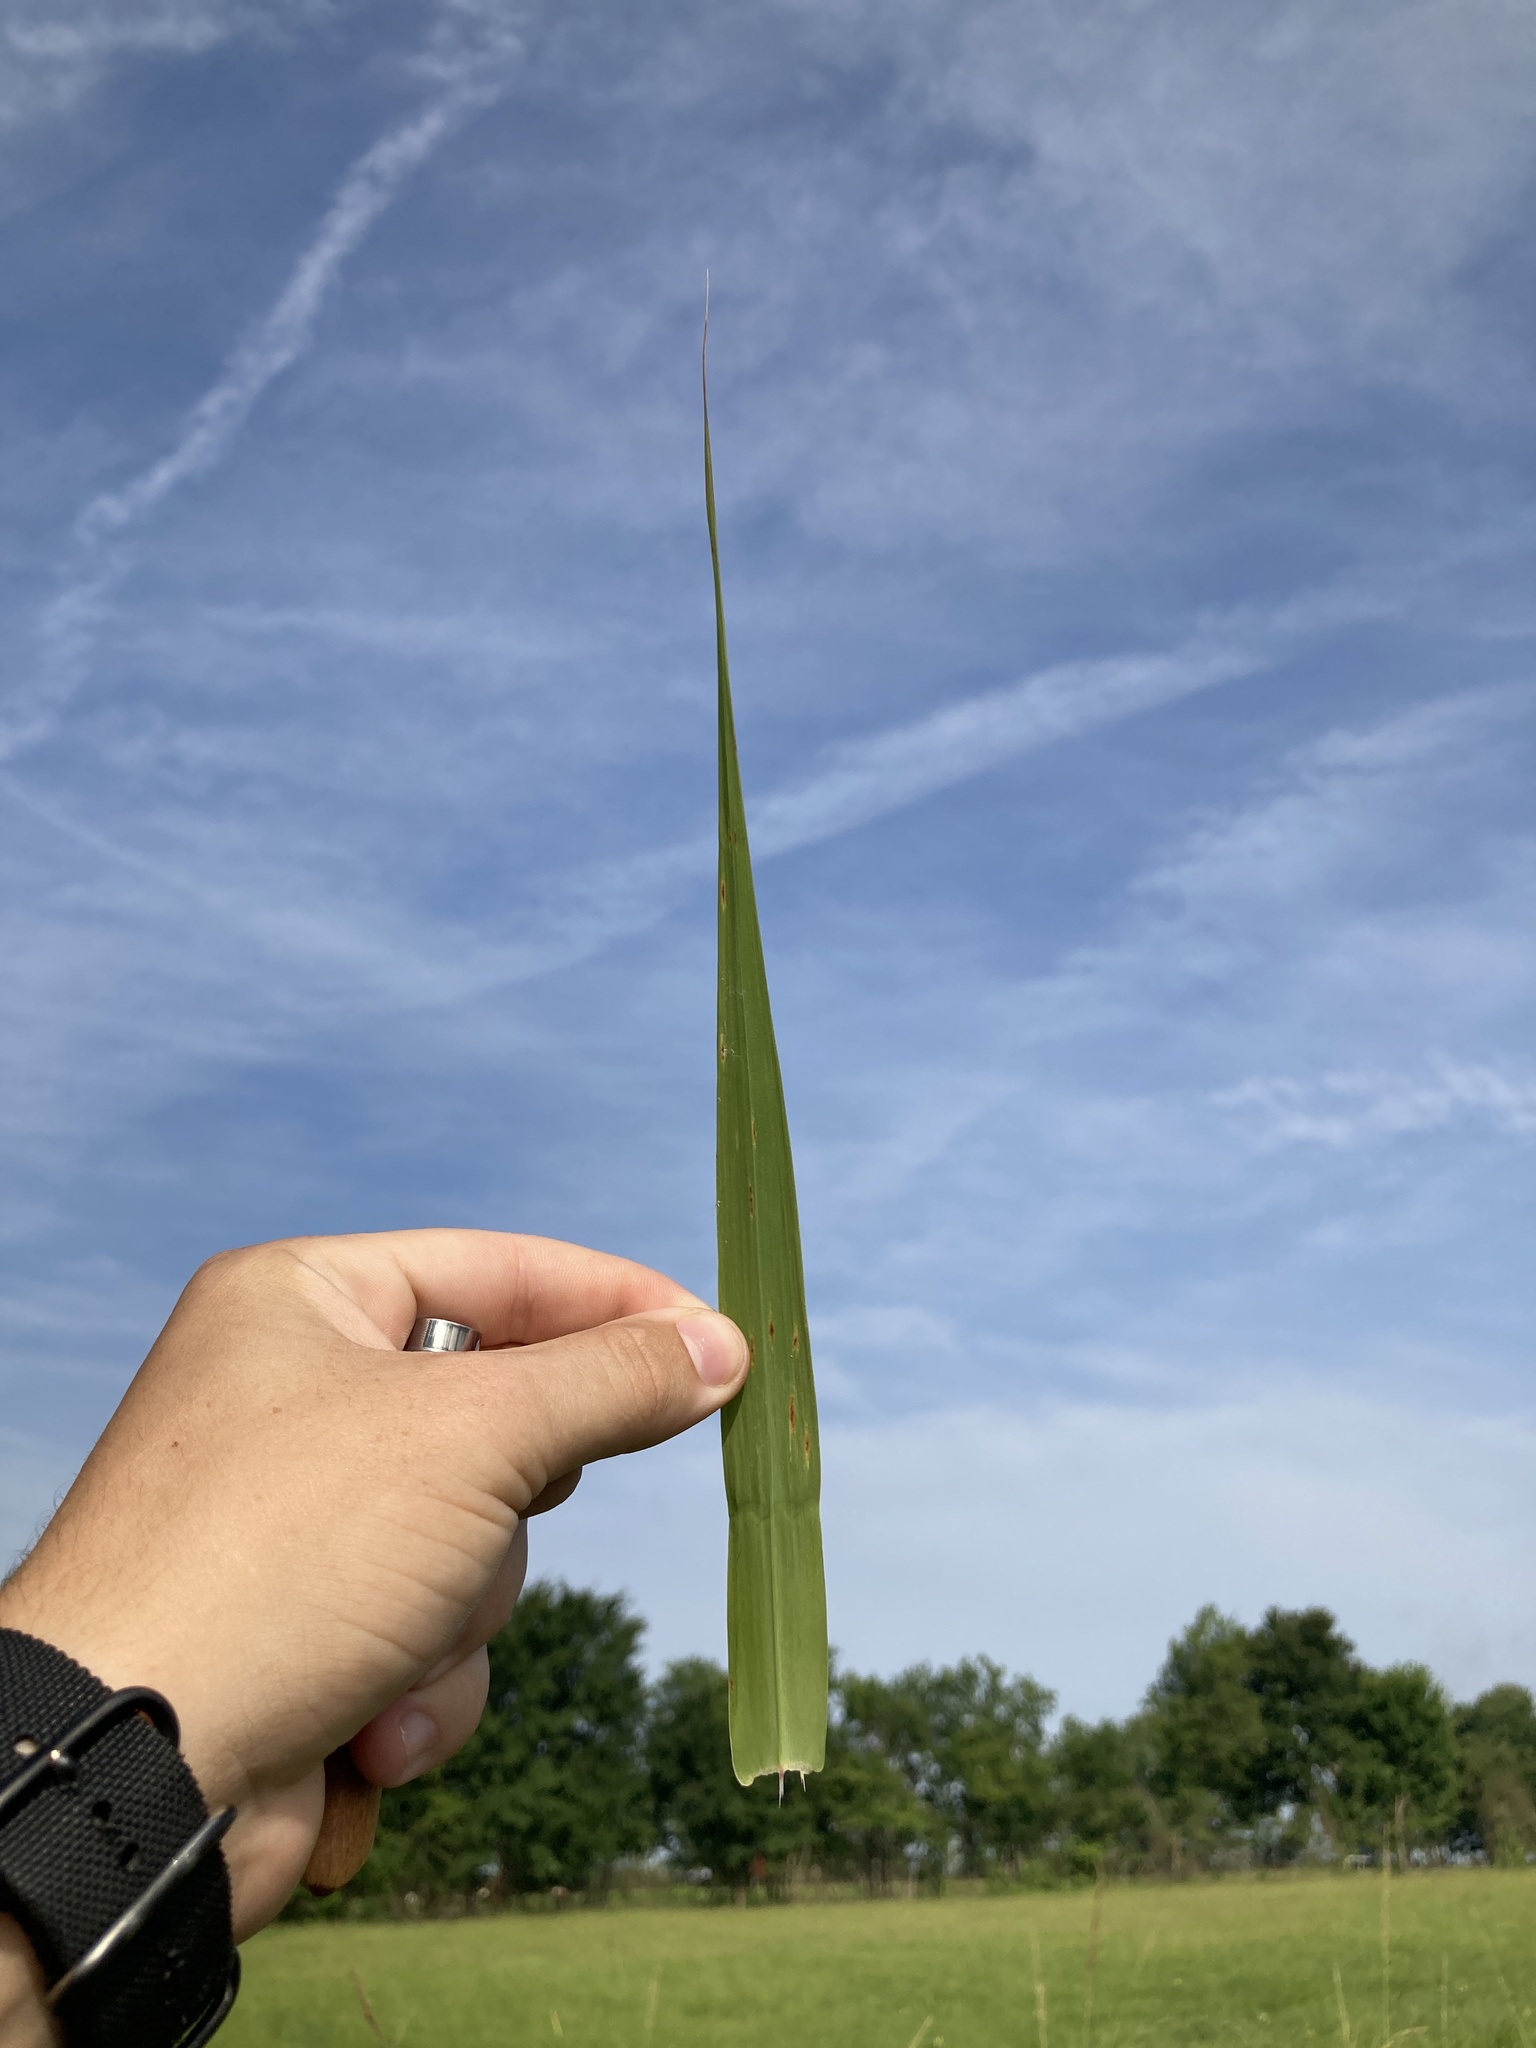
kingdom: Plantae
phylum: Tracheophyta
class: Liliopsida
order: Poales
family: Poaceae
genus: Tripsacum
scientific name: Tripsacum dactyloides
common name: Buffalo-grass
